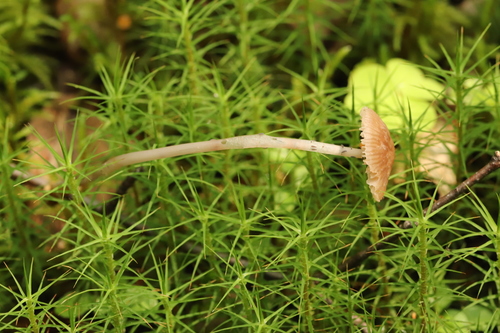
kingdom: Fungi
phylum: Basidiomycota
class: Agaricomycetes
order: Agaricales
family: Mycenaceae
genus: Mycena
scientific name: Mycena pura
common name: Lilac bonnet
